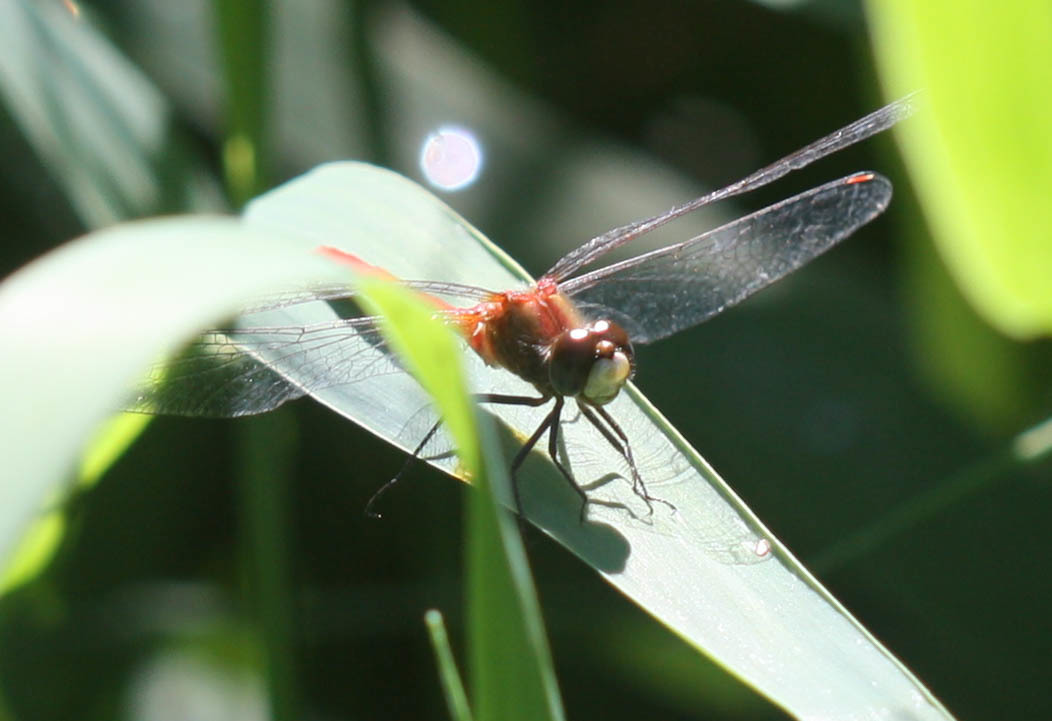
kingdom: Animalia
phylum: Arthropoda
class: Insecta
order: Odonata
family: Libellulidae
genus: Sympetrum
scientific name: Sympetrum obtrusum
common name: White-faced meadowhawk
